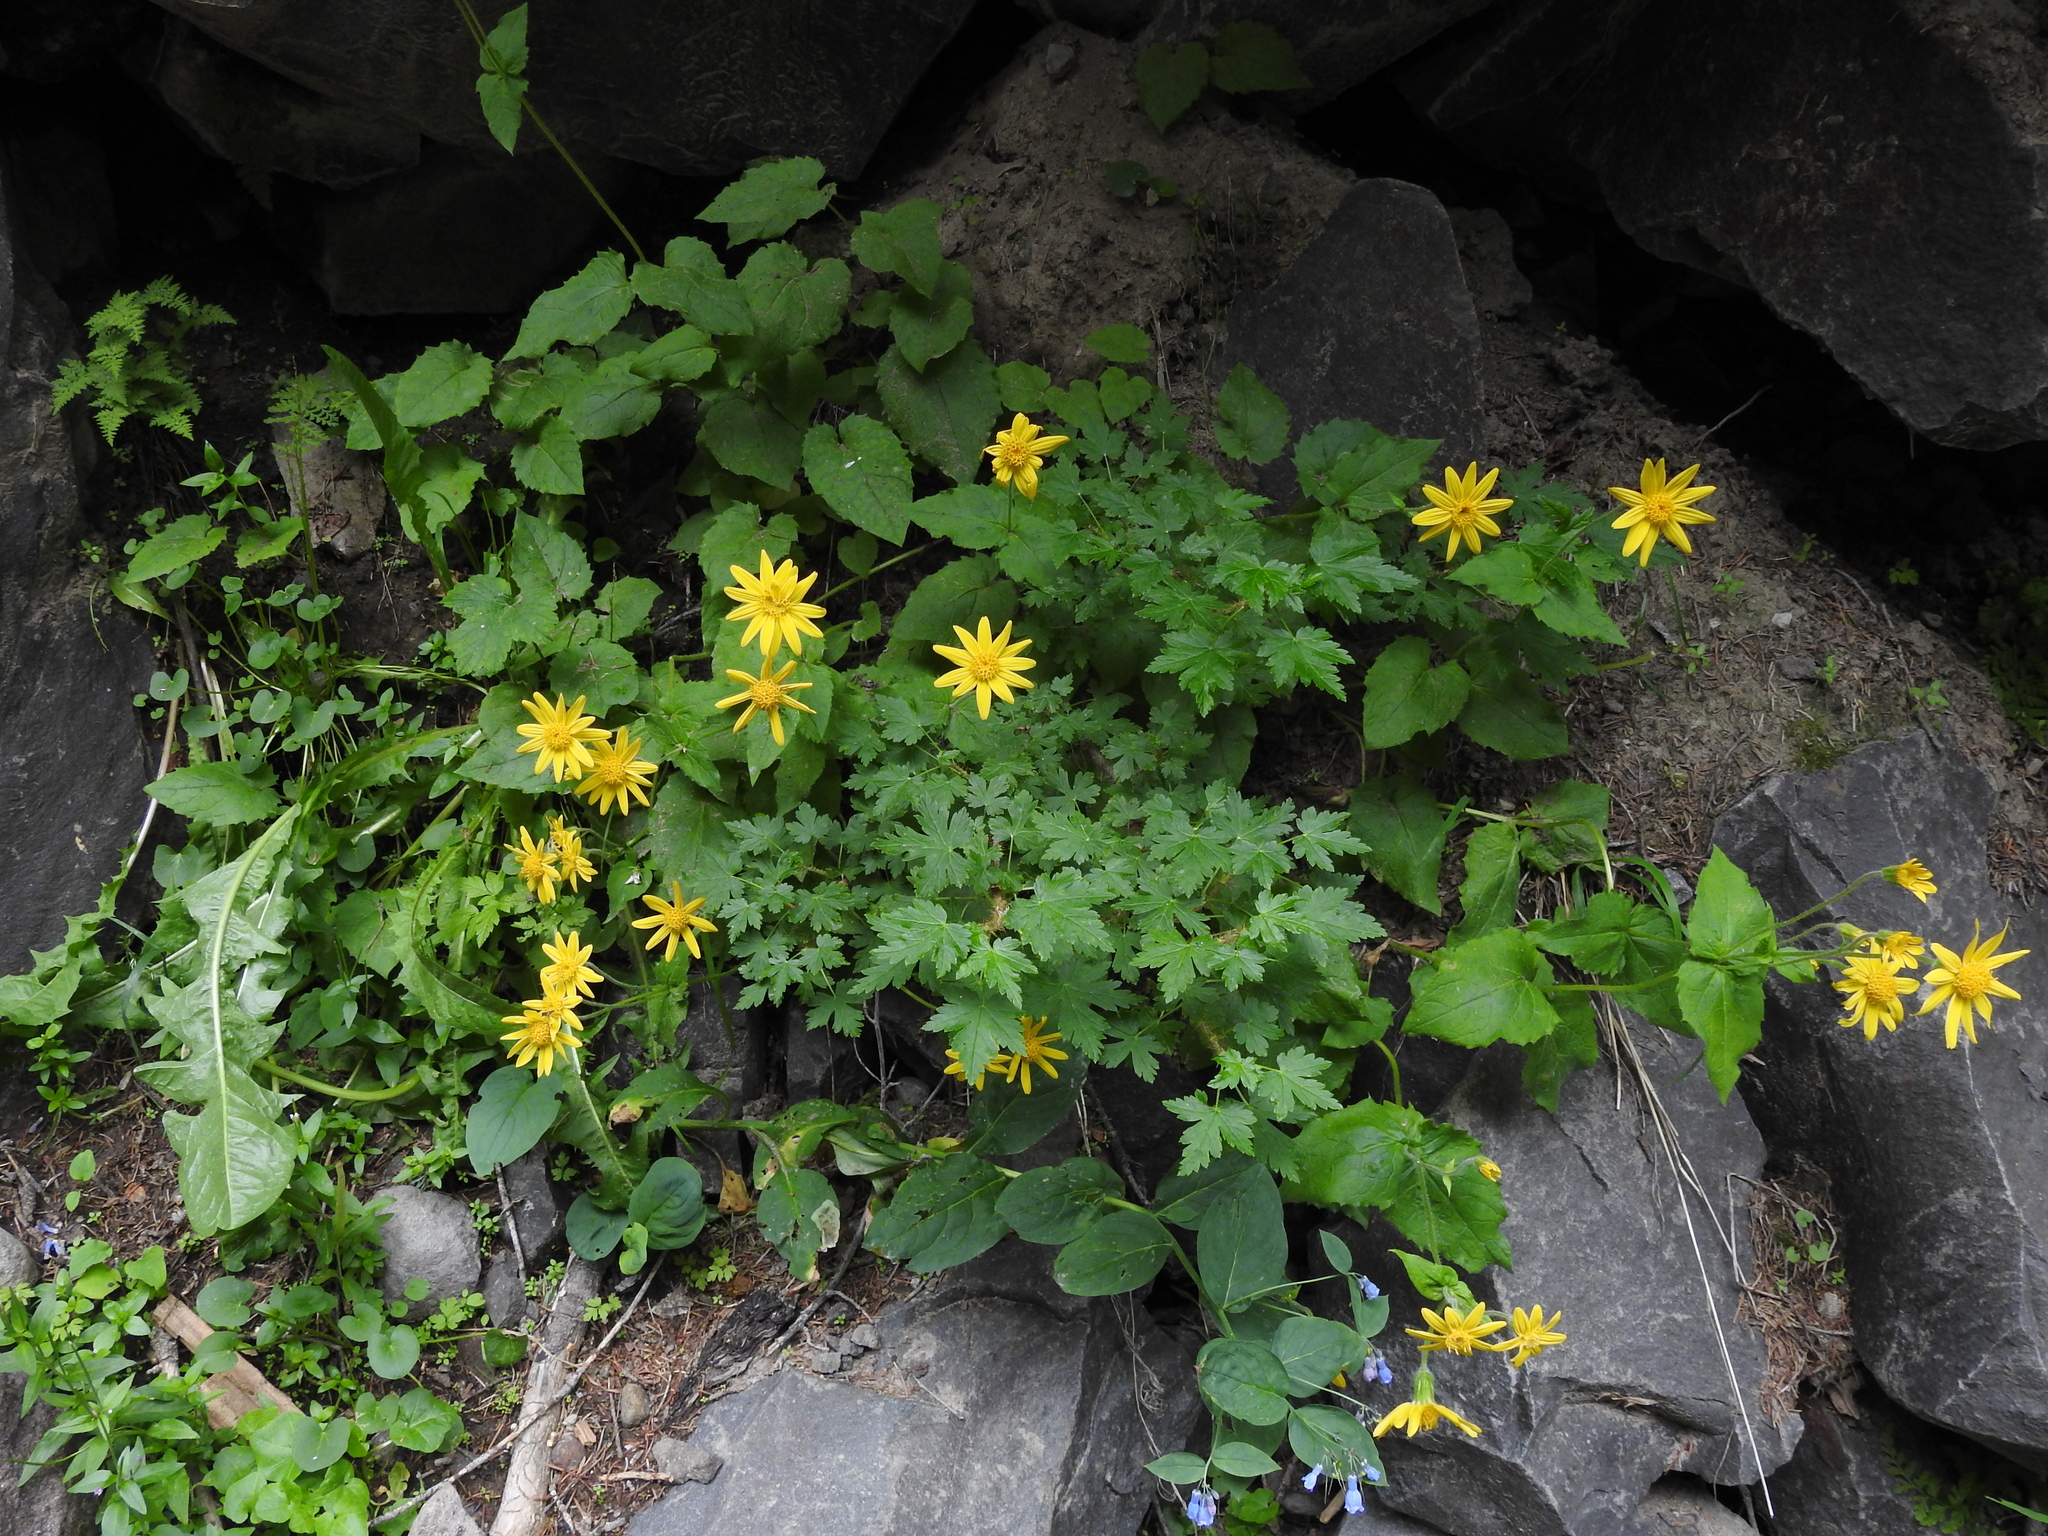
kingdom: Plantae
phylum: Tracheophyta
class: Magnoliopsida
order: Asterales
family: Asteraceae
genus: Arnica
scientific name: Arnica cordifolia
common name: Heart-leaf arnica
